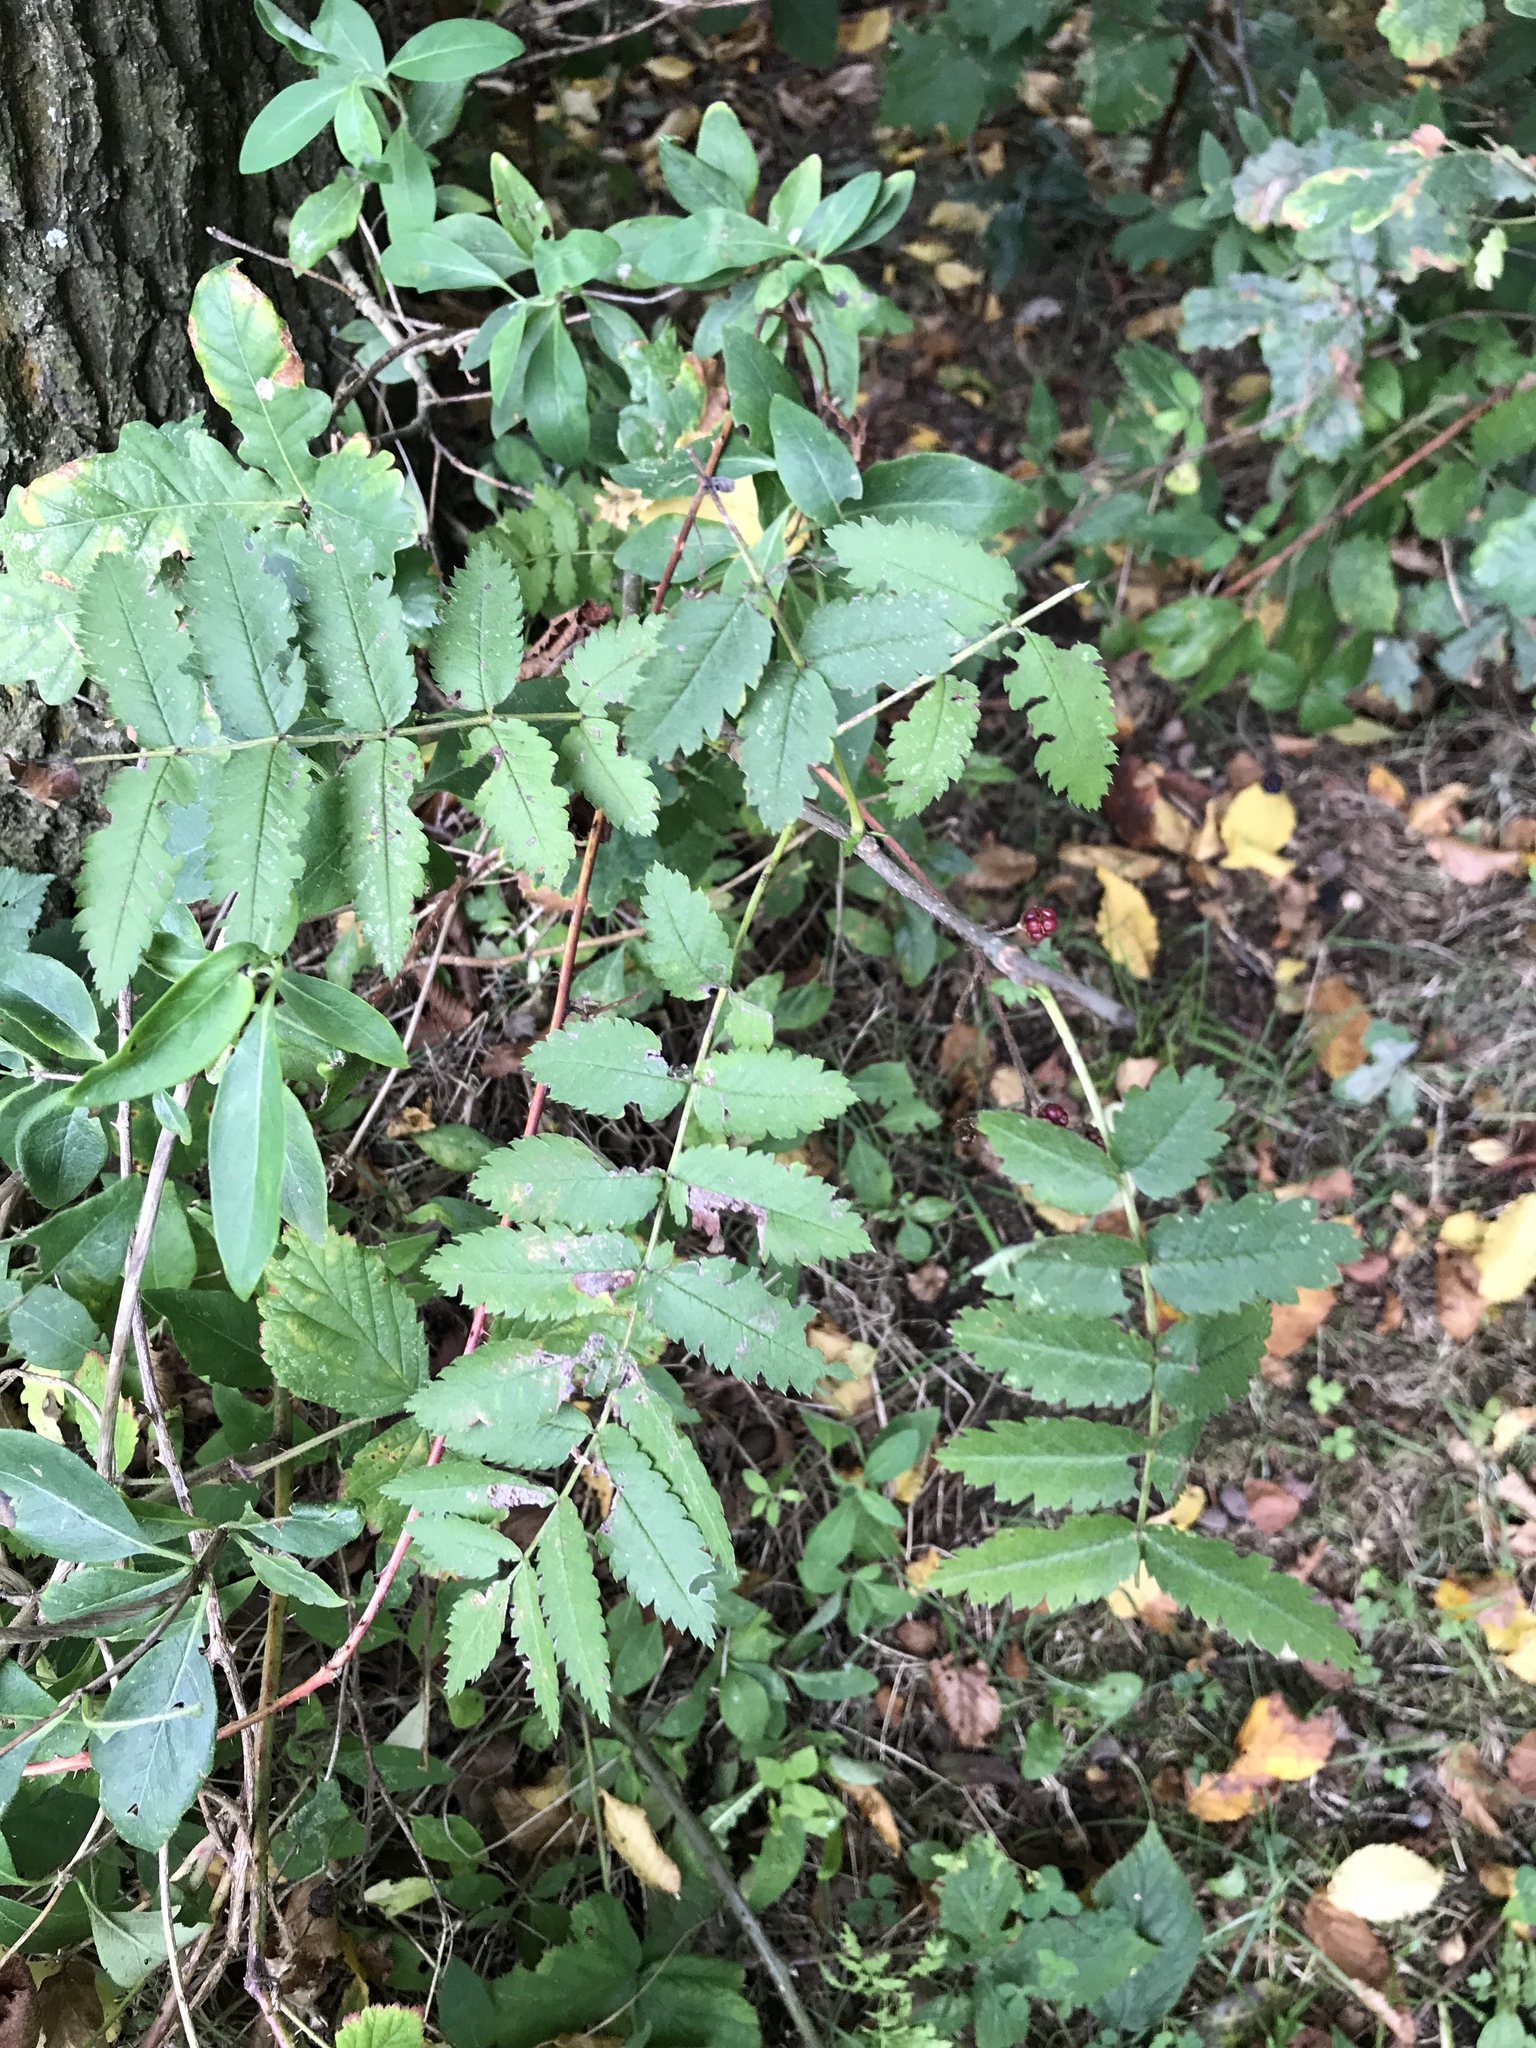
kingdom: Plantae
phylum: Tracheophyta
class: Magnoliopsida
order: Rosales
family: Rosaceae
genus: Sorbus
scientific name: Sorbus aucuparia
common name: Rowan
